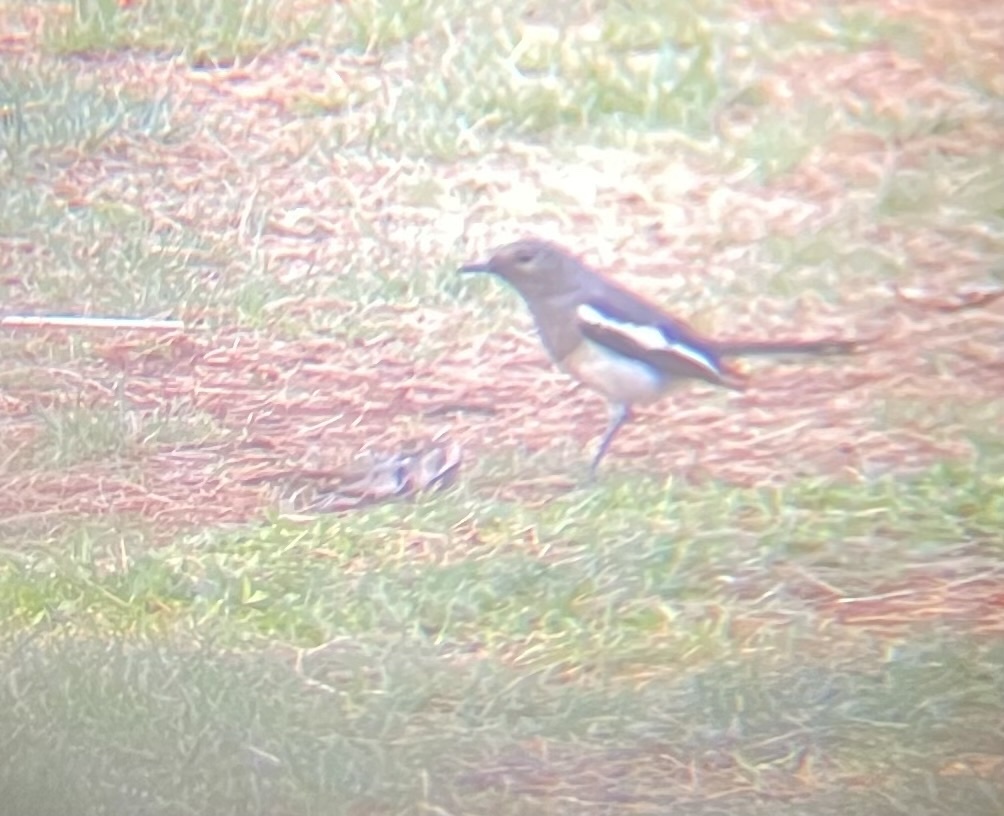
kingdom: Animalia
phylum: Chordata
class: Aves
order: Passeriformes
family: Muscicapidae
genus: Copsychus
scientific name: Copsychus saularis
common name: Oriental magpie-robin
